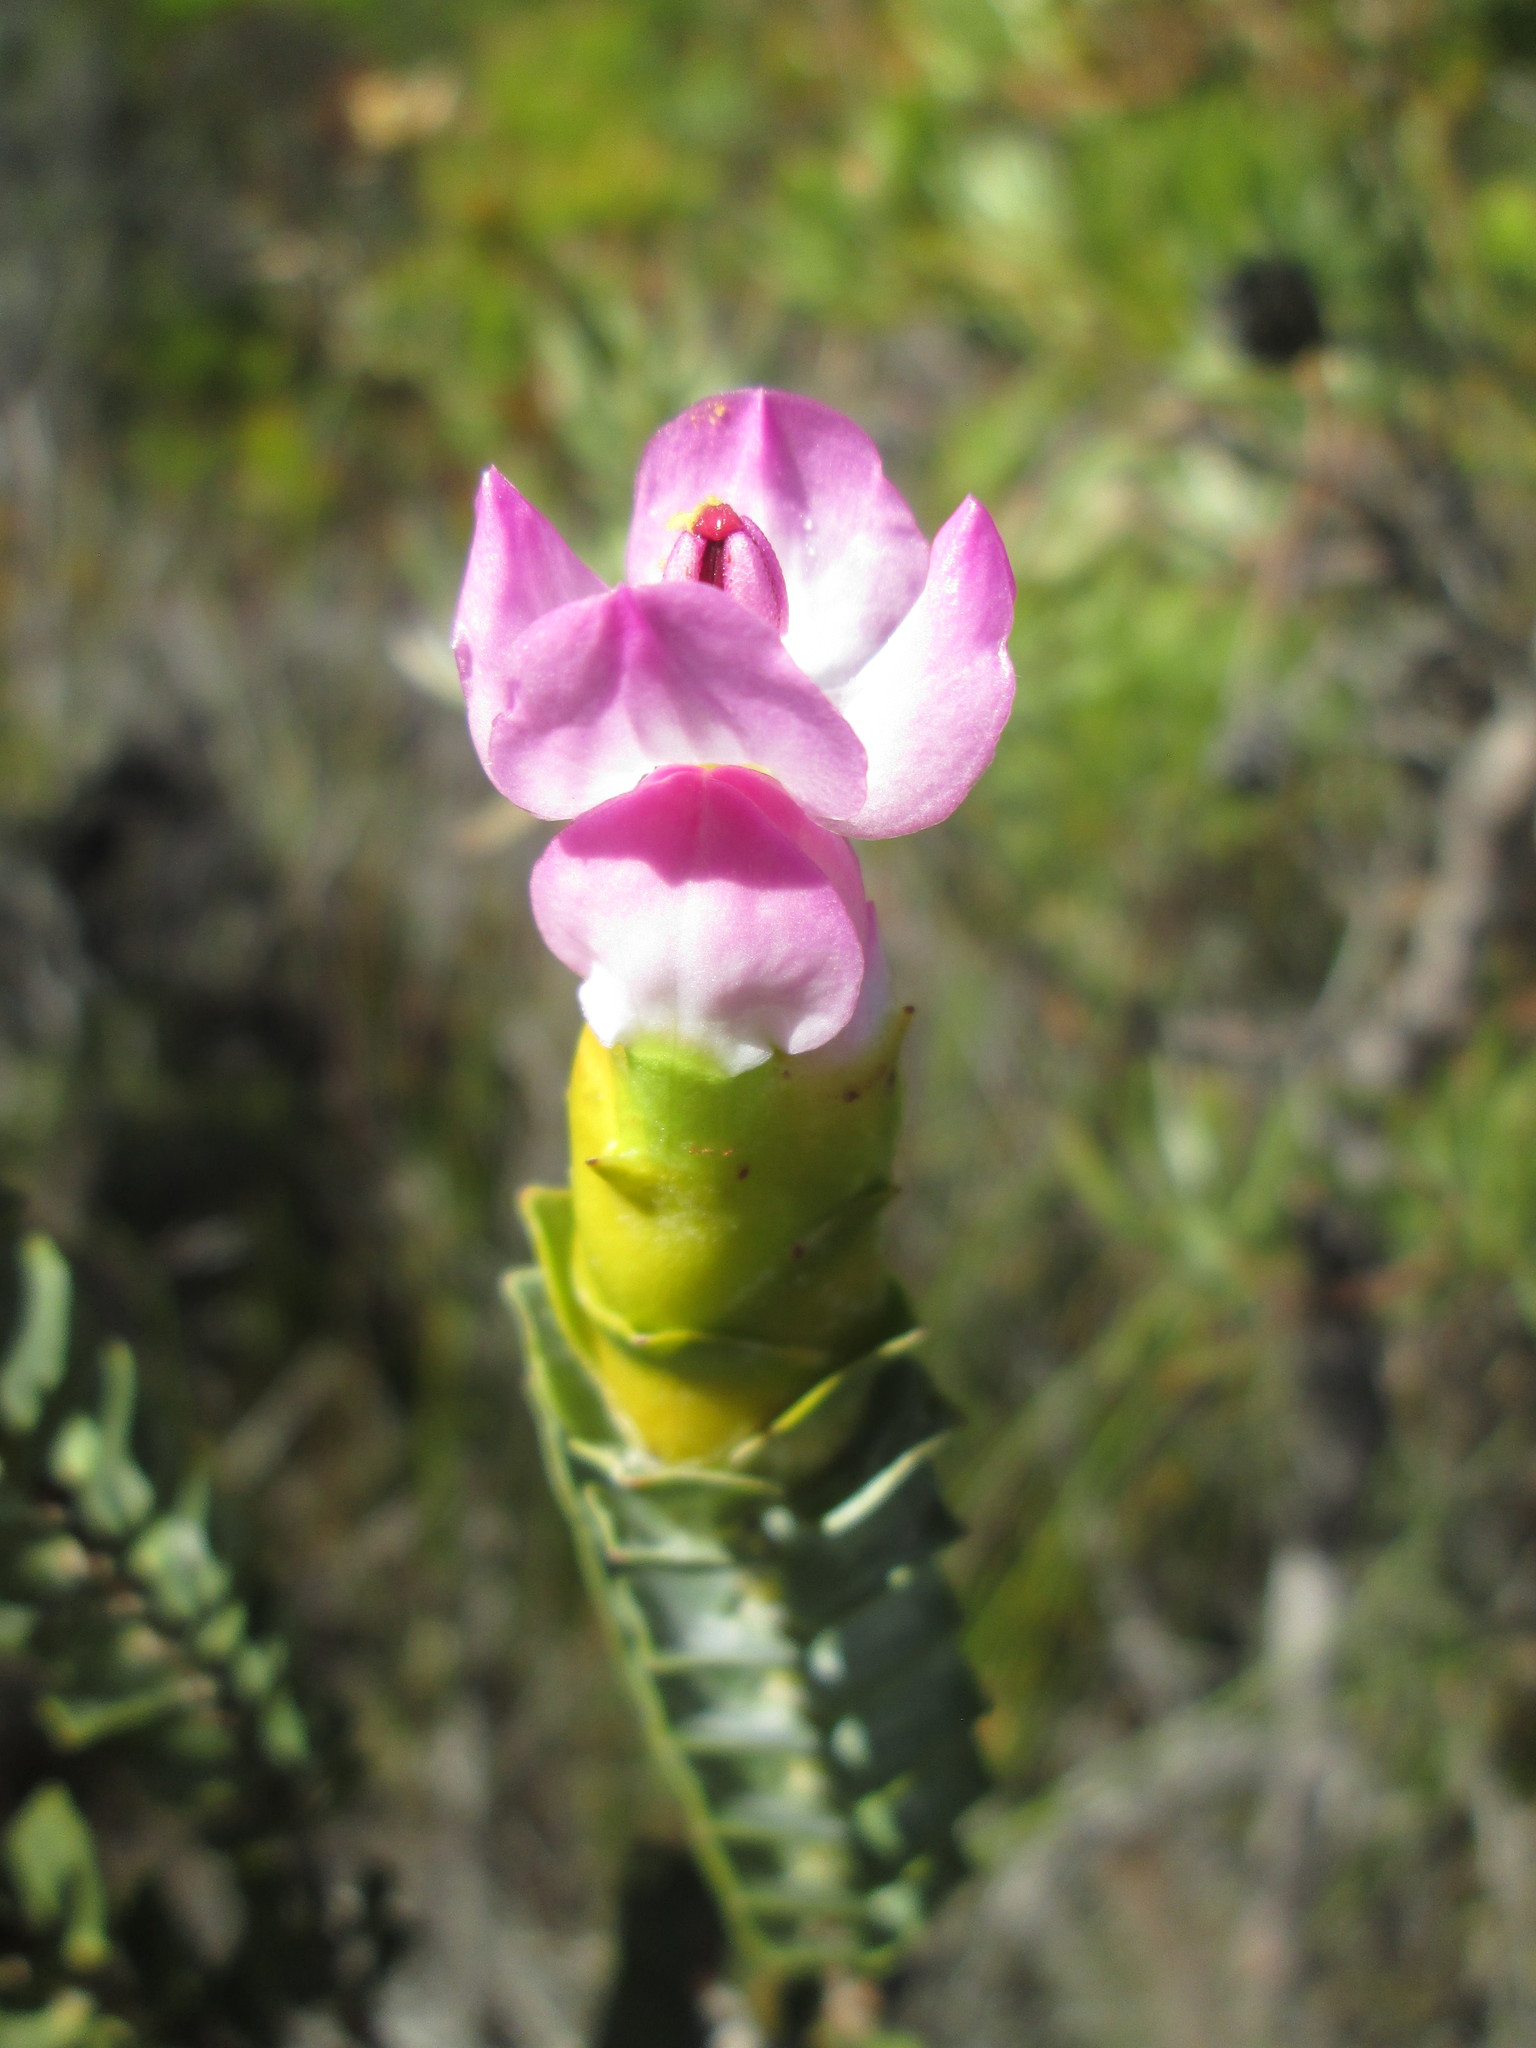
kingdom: Plantae
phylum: Tracheophyta
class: Magnoliopsida
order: Myrtales
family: Penaeaceae
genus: Saltera
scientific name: Saltera sarcocolla
